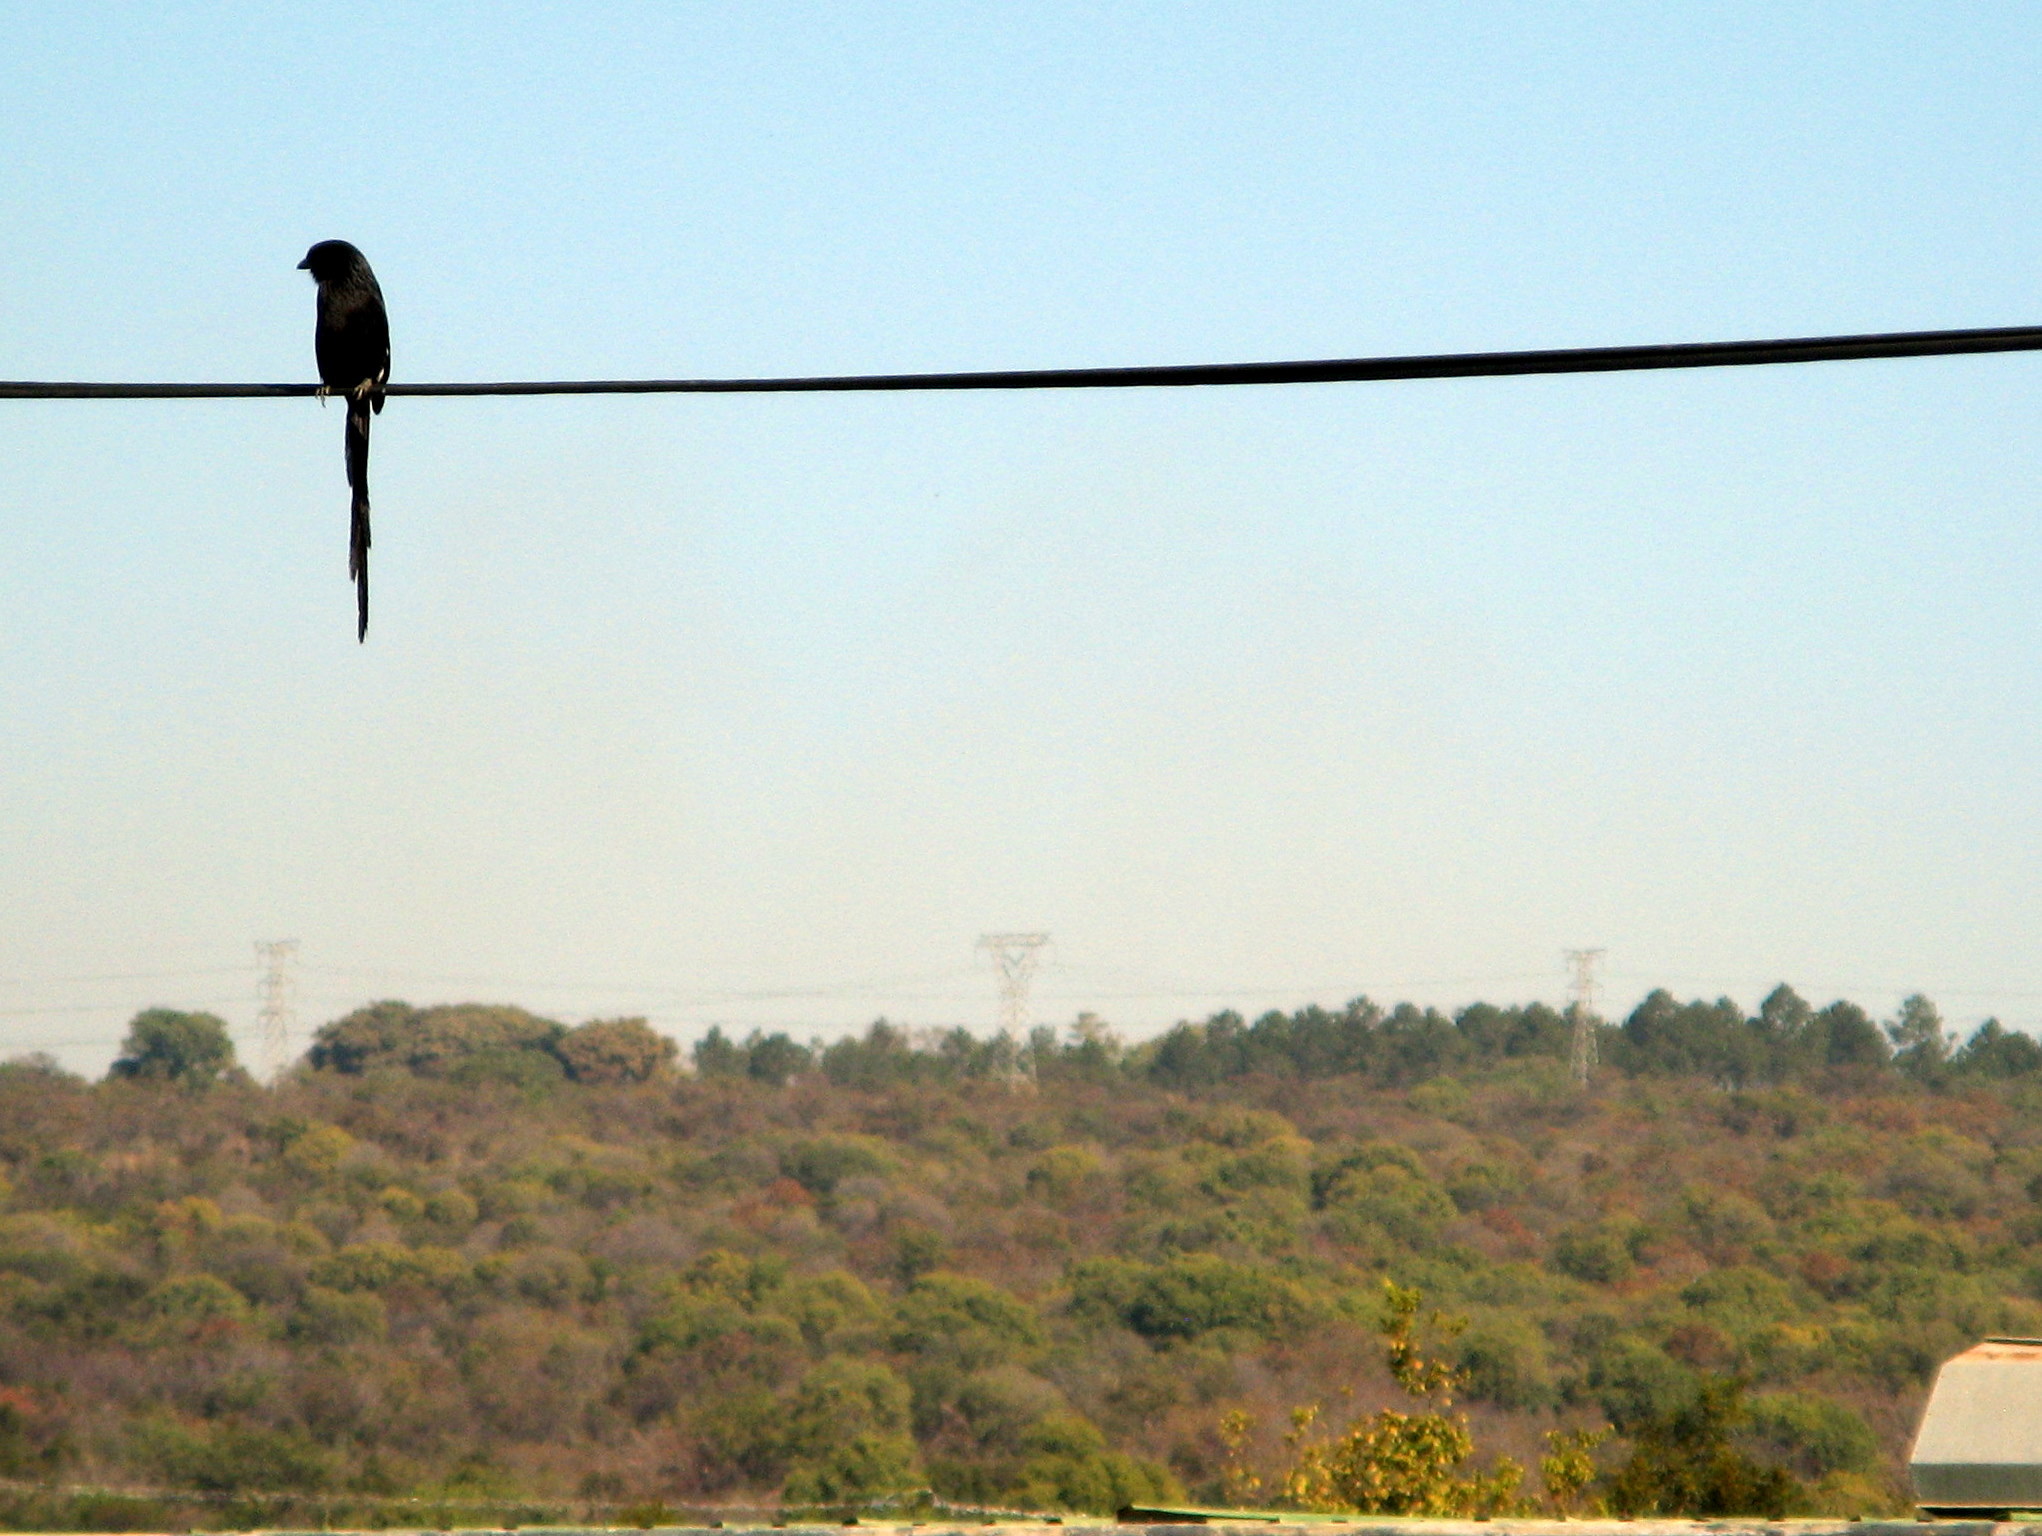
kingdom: Animalia
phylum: Chordata
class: Aves
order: Passeriformes
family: Laniidae
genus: Urolestes
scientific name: Urolestes melanoleucus
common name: Magpie shrike
